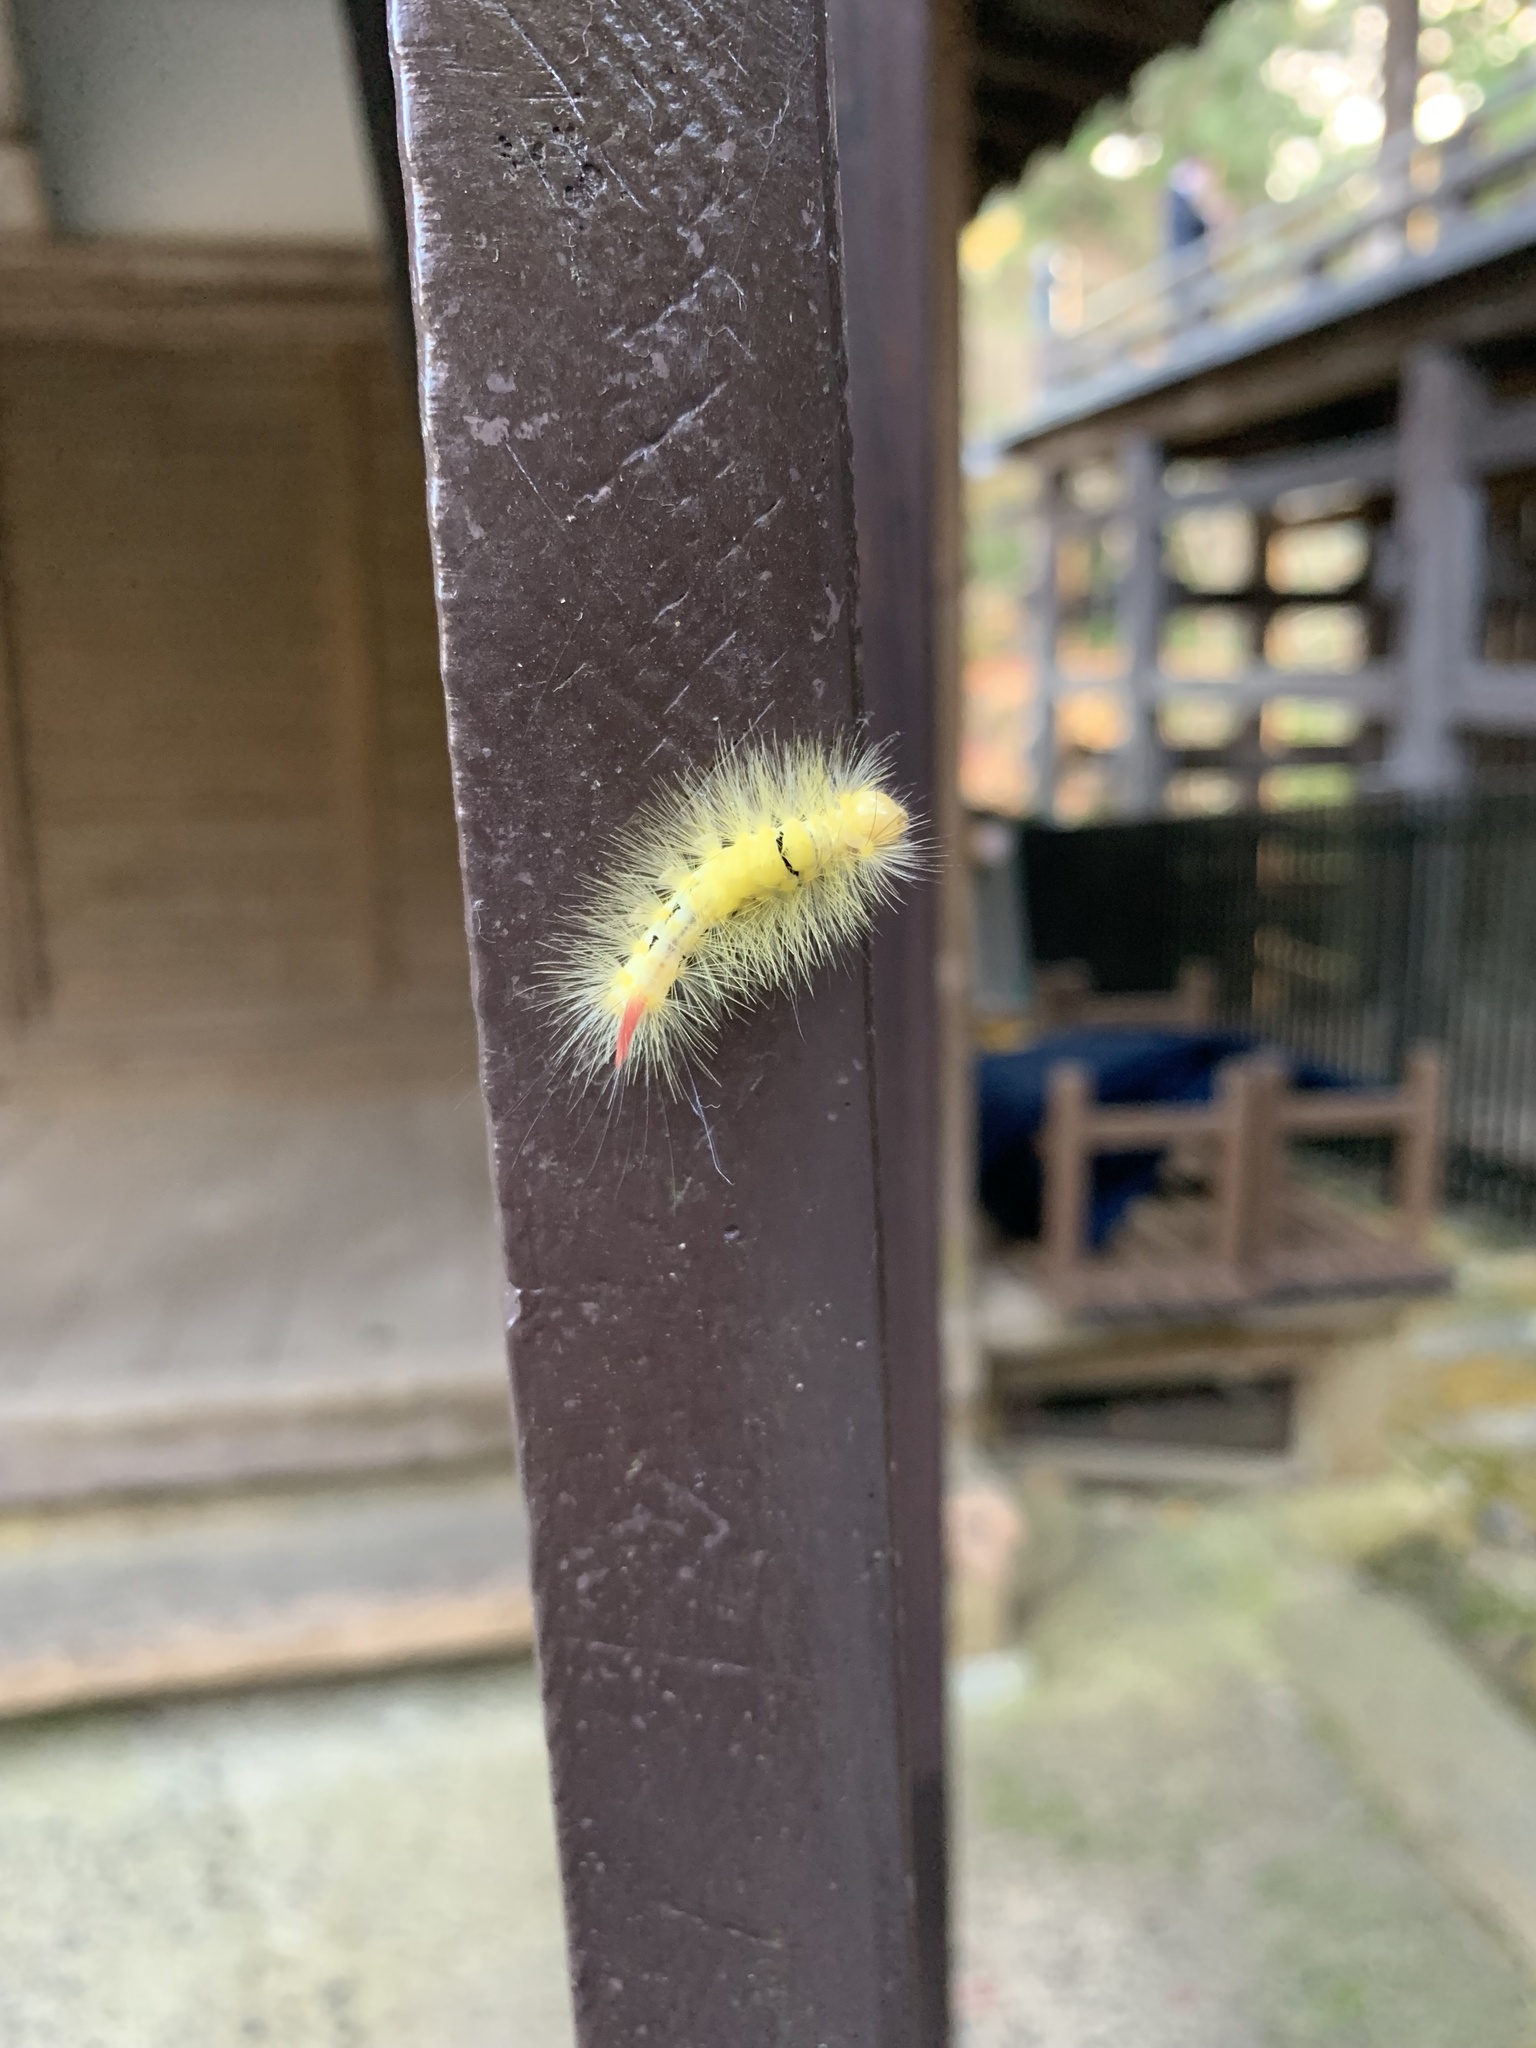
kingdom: Animalia
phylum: Arthropoda
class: Insecta
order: Lepidoptera
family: Erebidae
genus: Calliteara
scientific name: Calliteara
